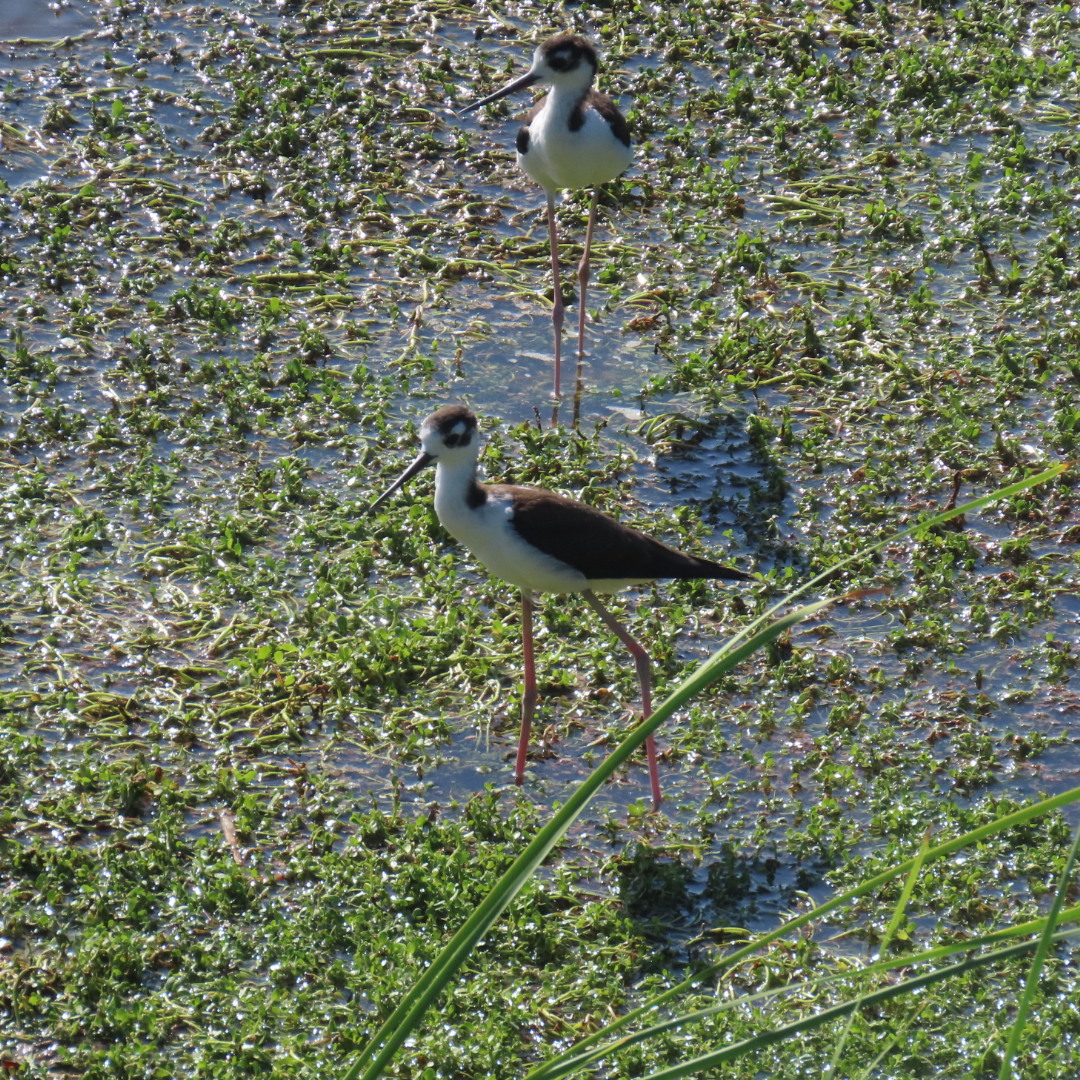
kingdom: Animalia
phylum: Chordata
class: Aves
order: Charadriiformes
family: Recurvirostridae
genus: Himantopus
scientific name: Himantopus mexicanus
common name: Black-necked stilt
